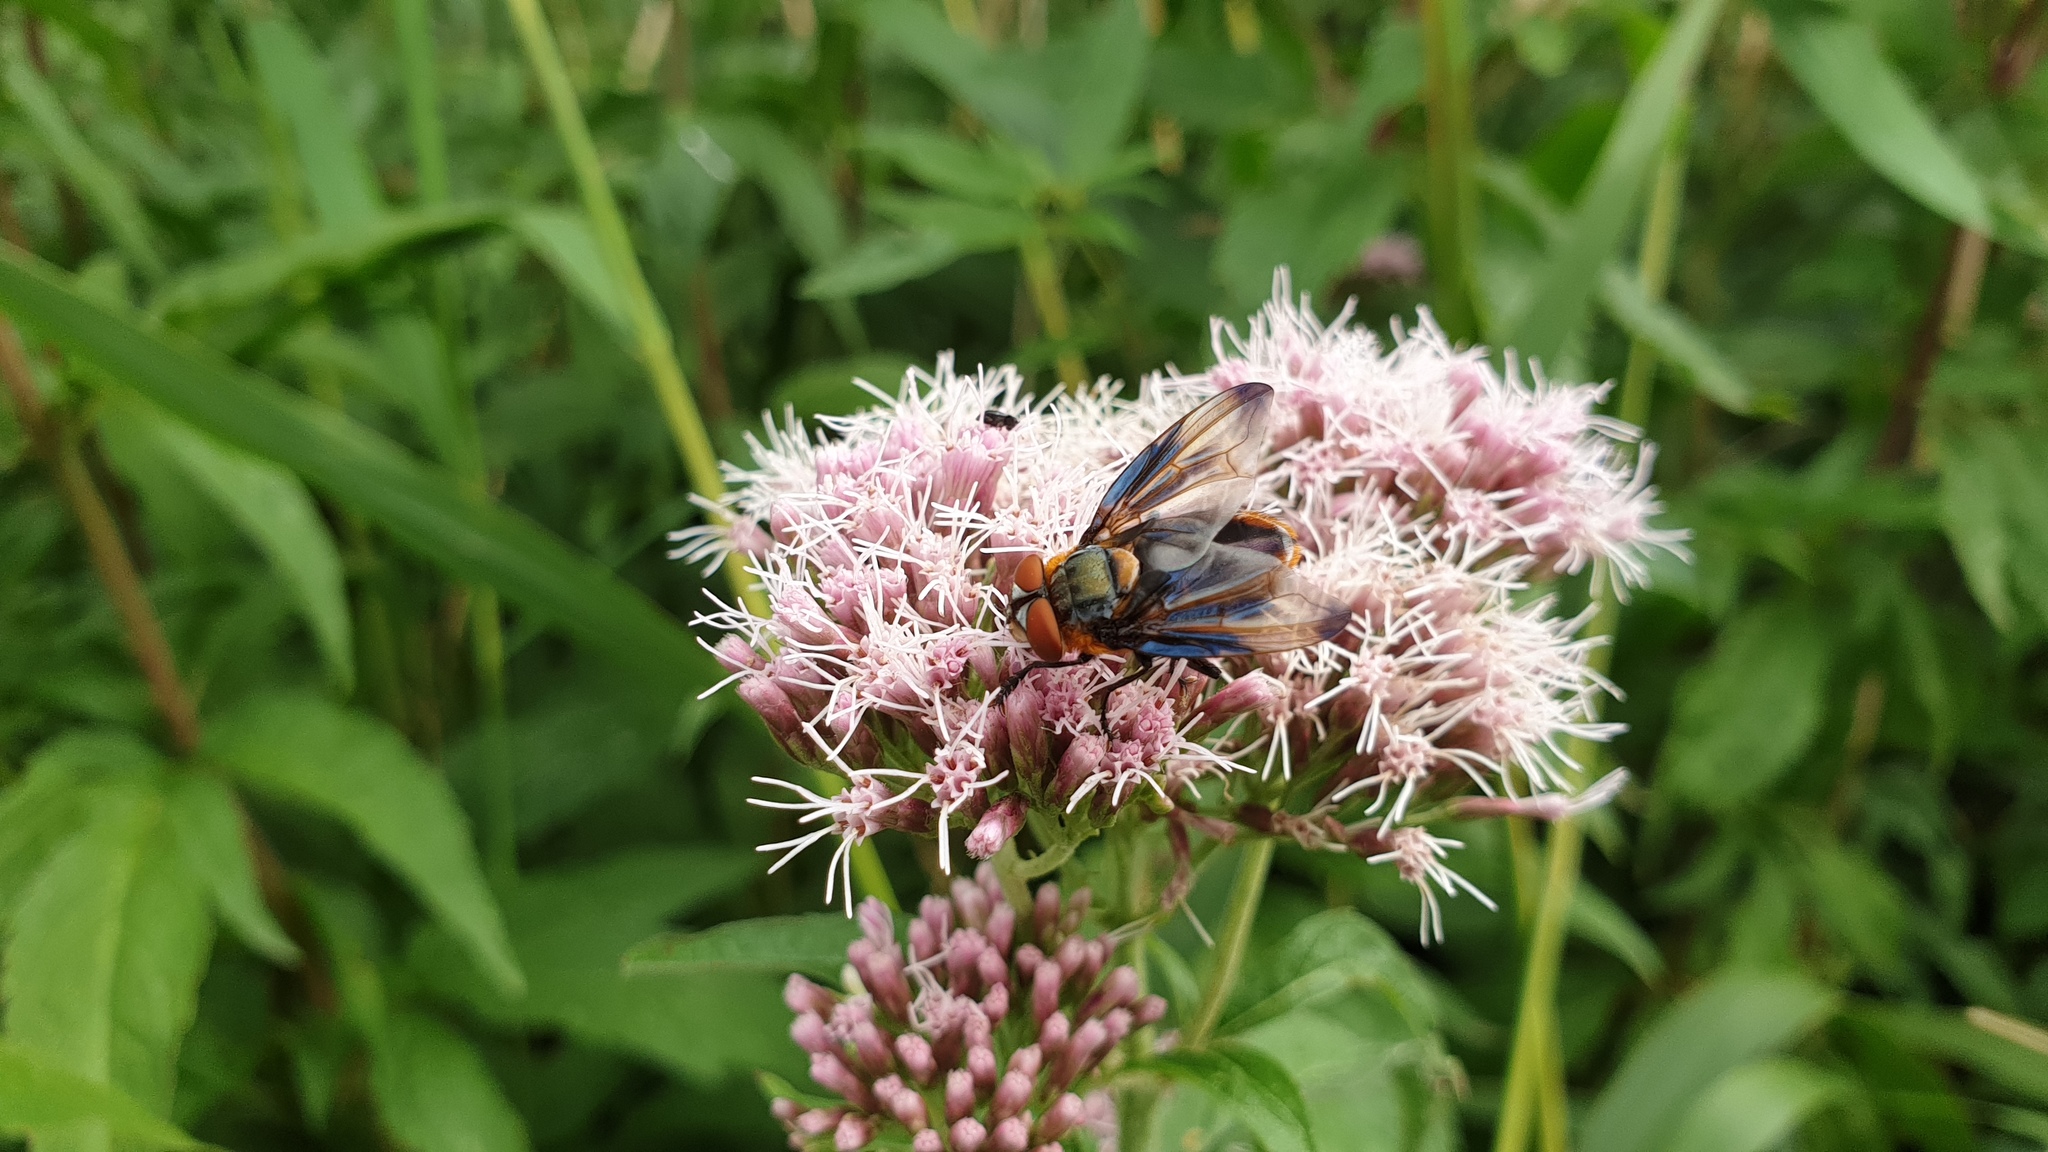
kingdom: Animalia
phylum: Arthropoda
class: Insecta
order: Diptera
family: Tachinidae
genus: Phasia
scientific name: Phasia hemiptera
